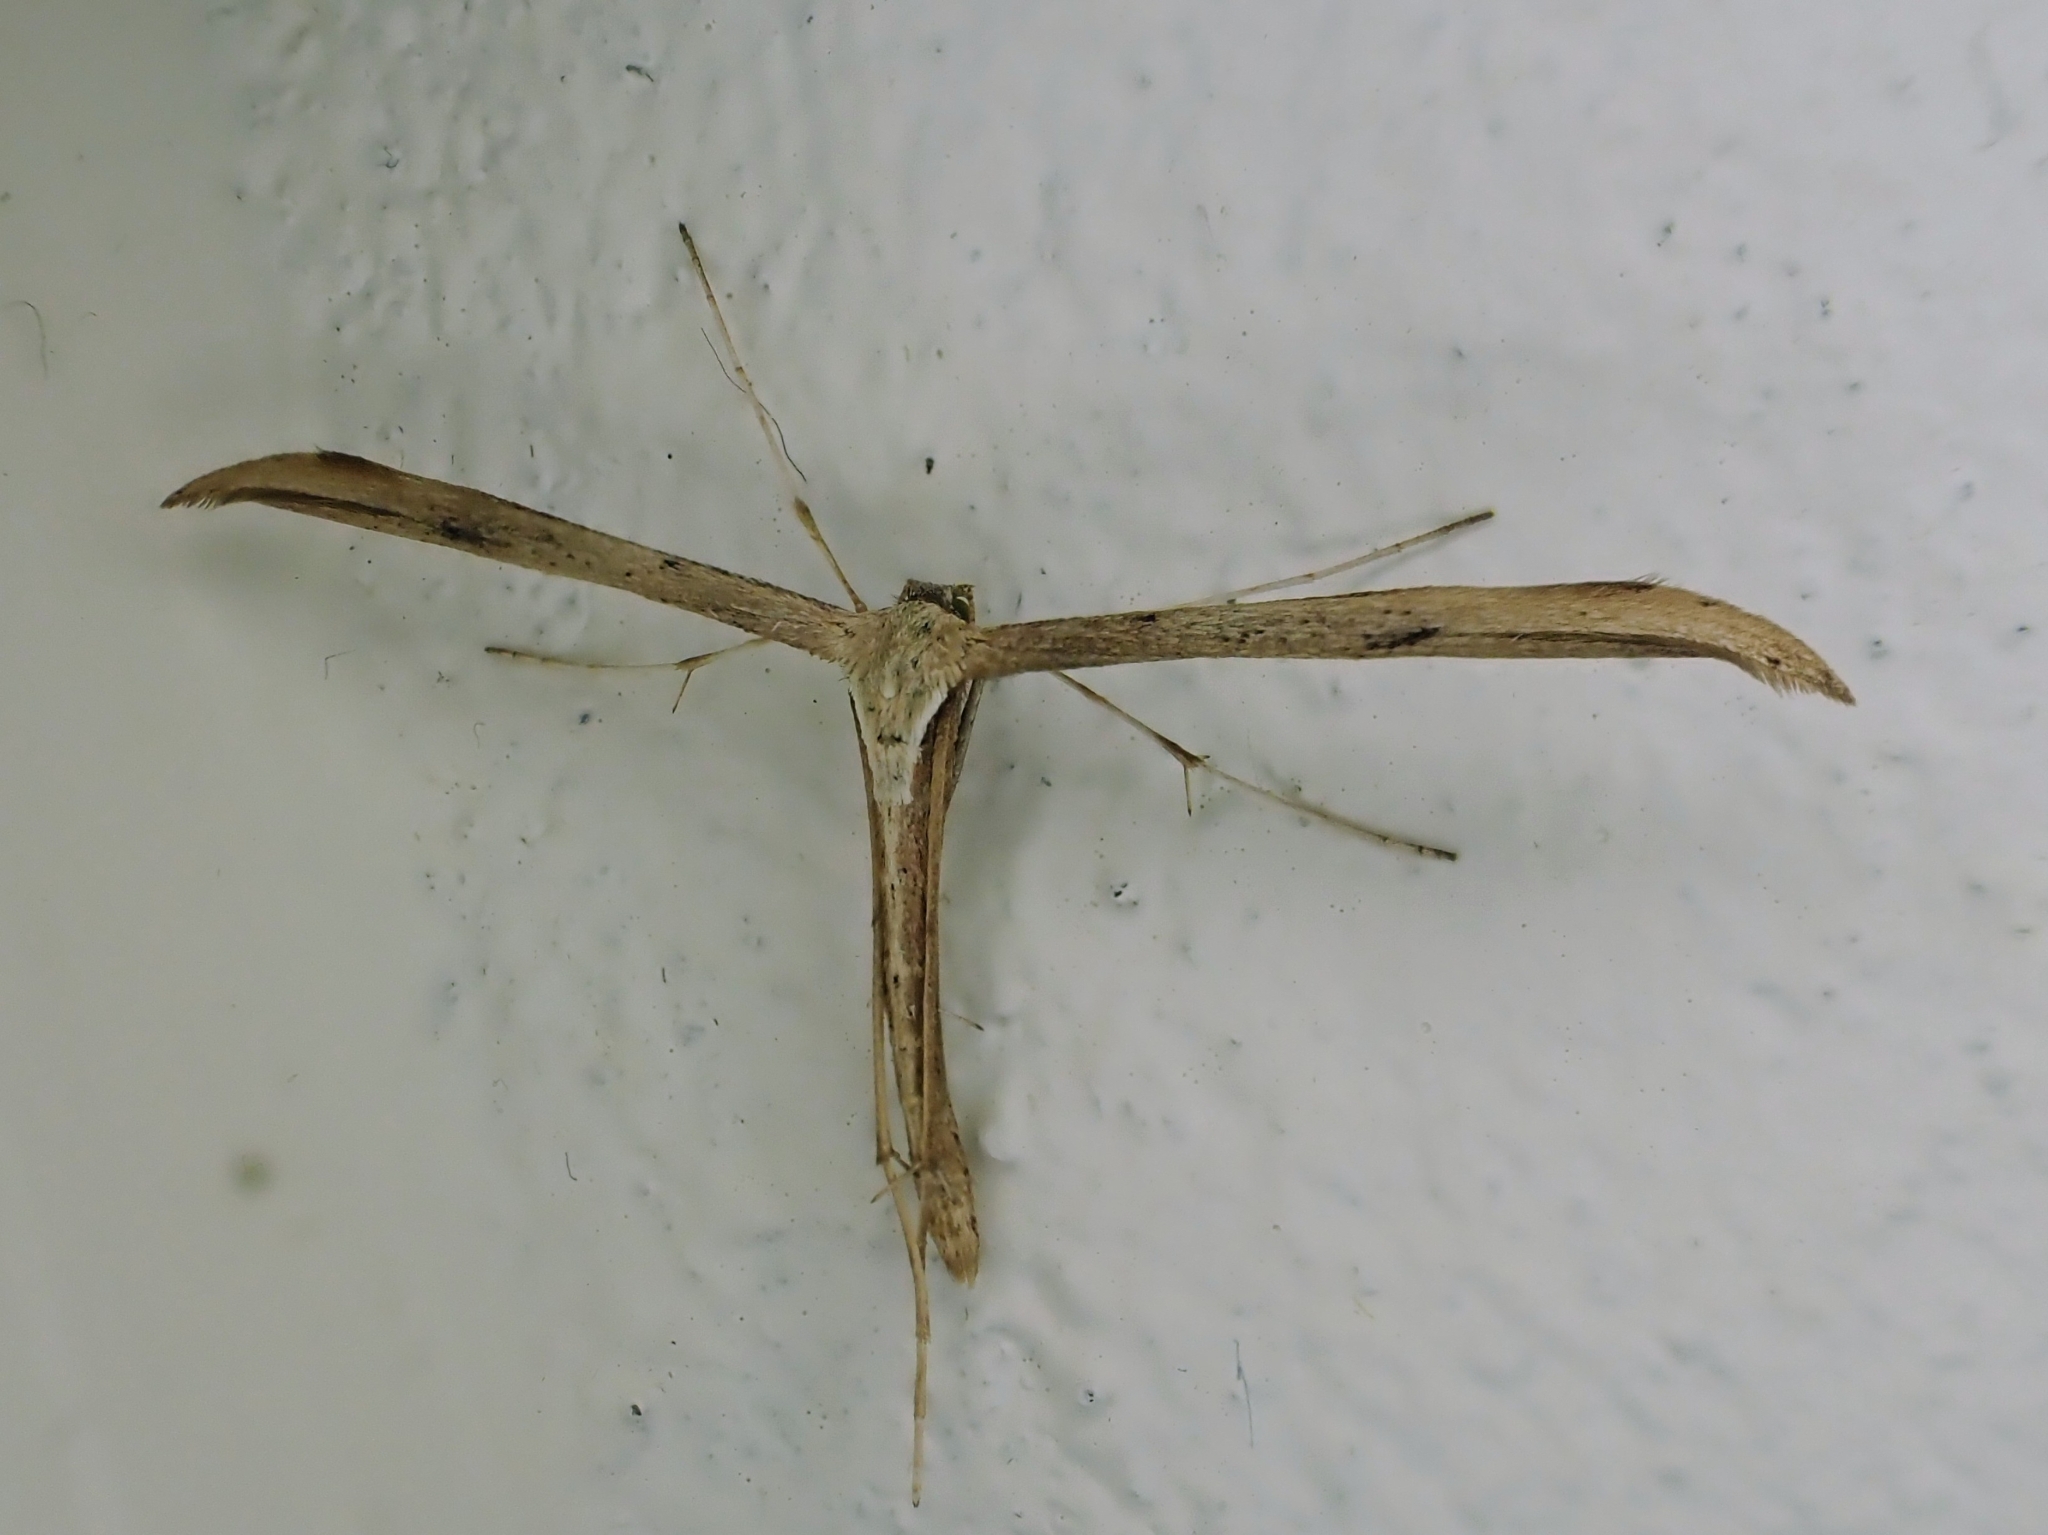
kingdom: Animalia
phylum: Arthropoda
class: Insecta
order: Lepidoptera
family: Pterophoridae
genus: Emmelina
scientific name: Emmelina monodactyla
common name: Common plume
